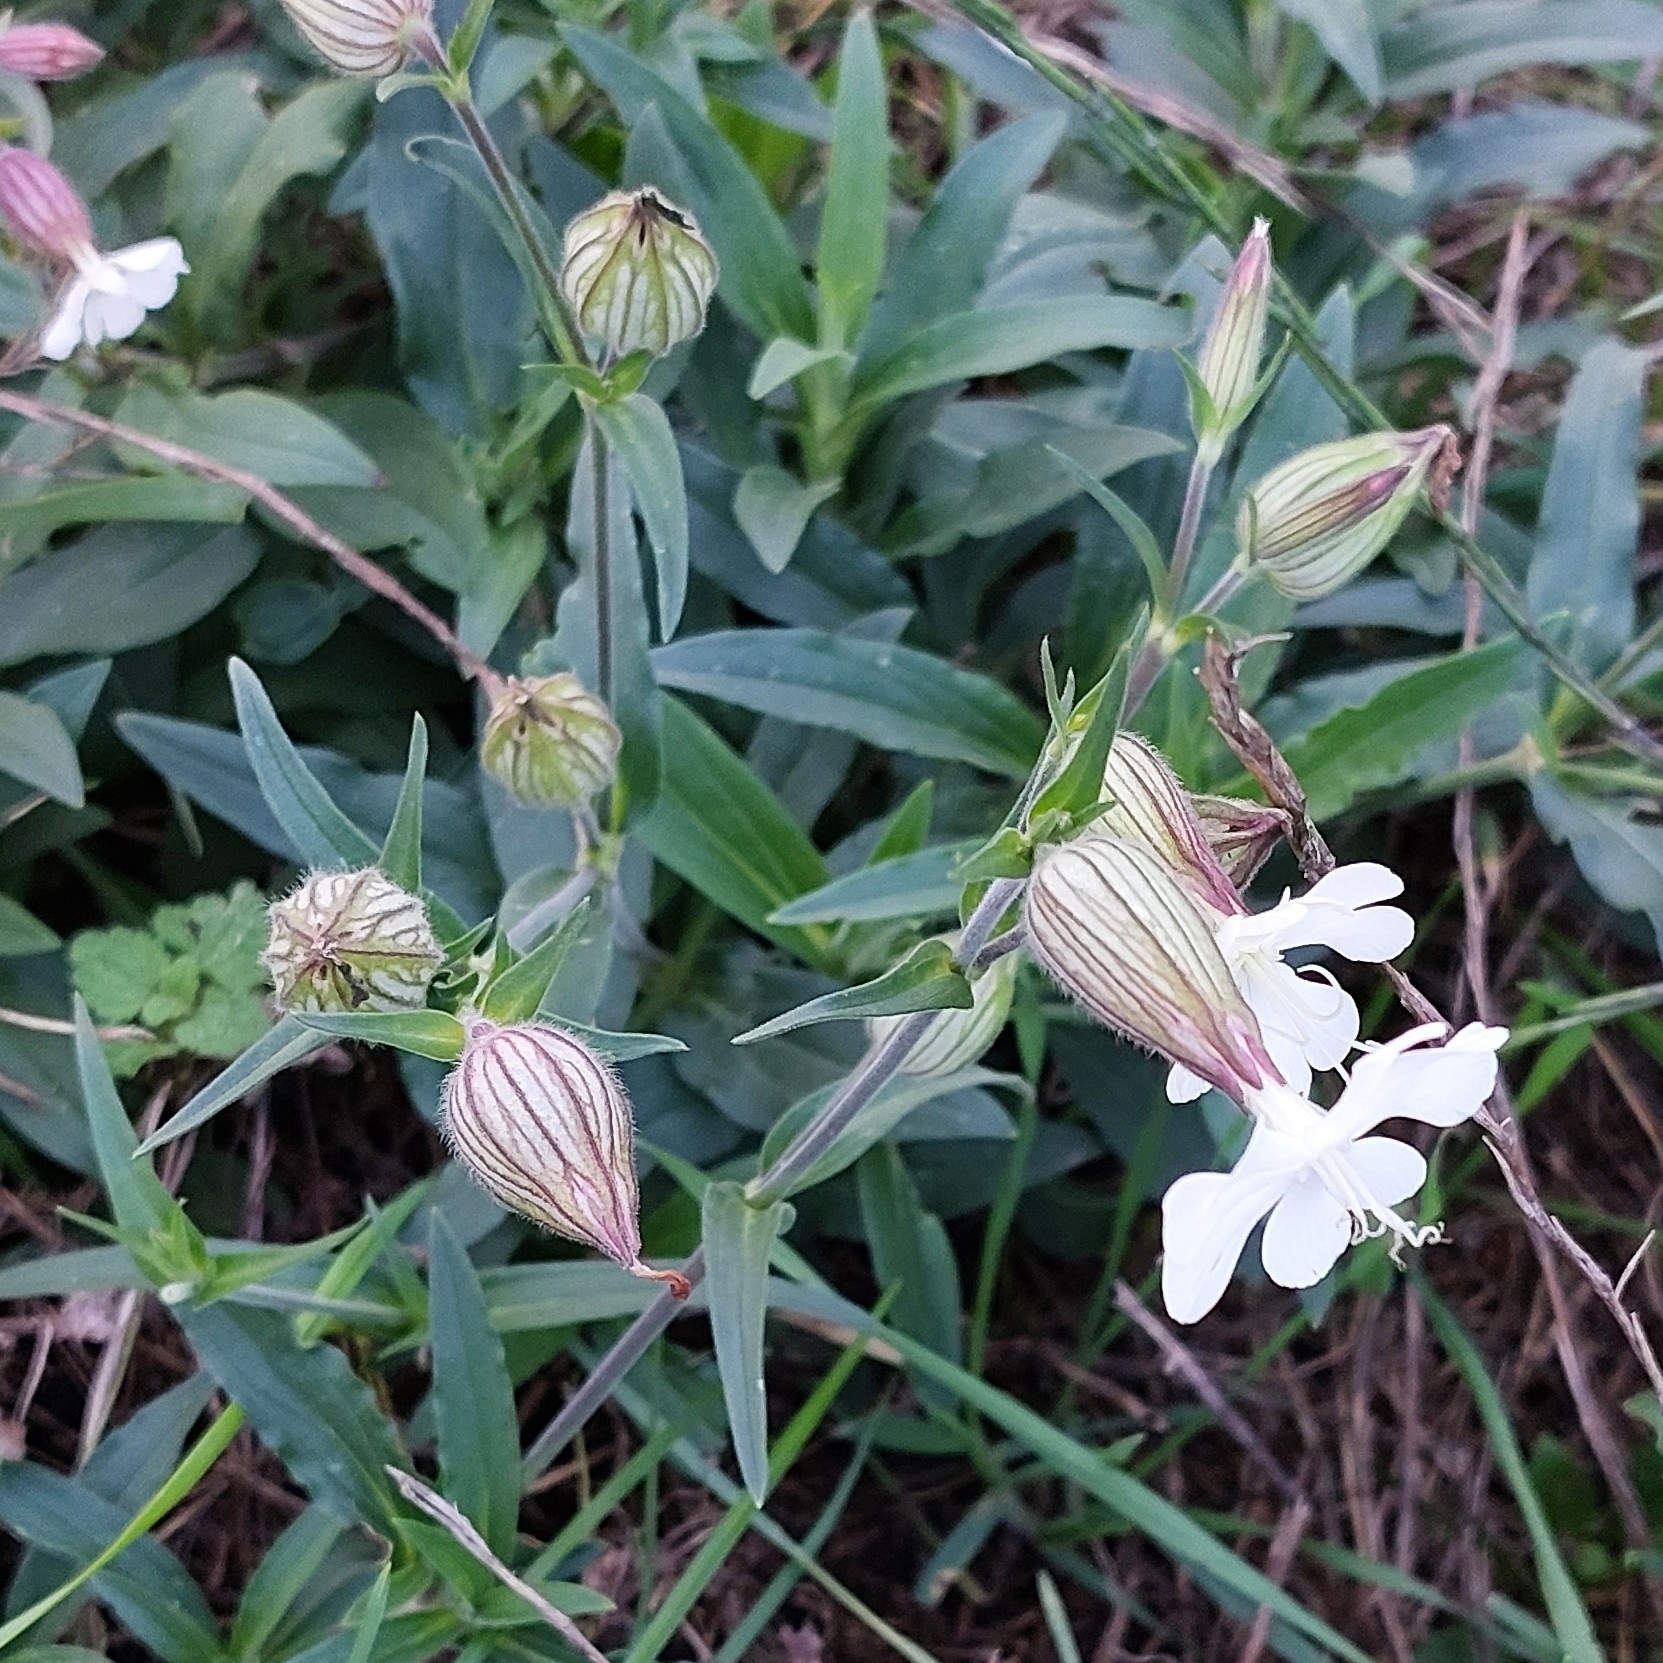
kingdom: Plantae
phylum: Tracheophyta
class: Magnoliopsida
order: Caryophyllales
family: Caryophyllaceae
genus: Silene
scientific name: Silene latifolia
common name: White campion
